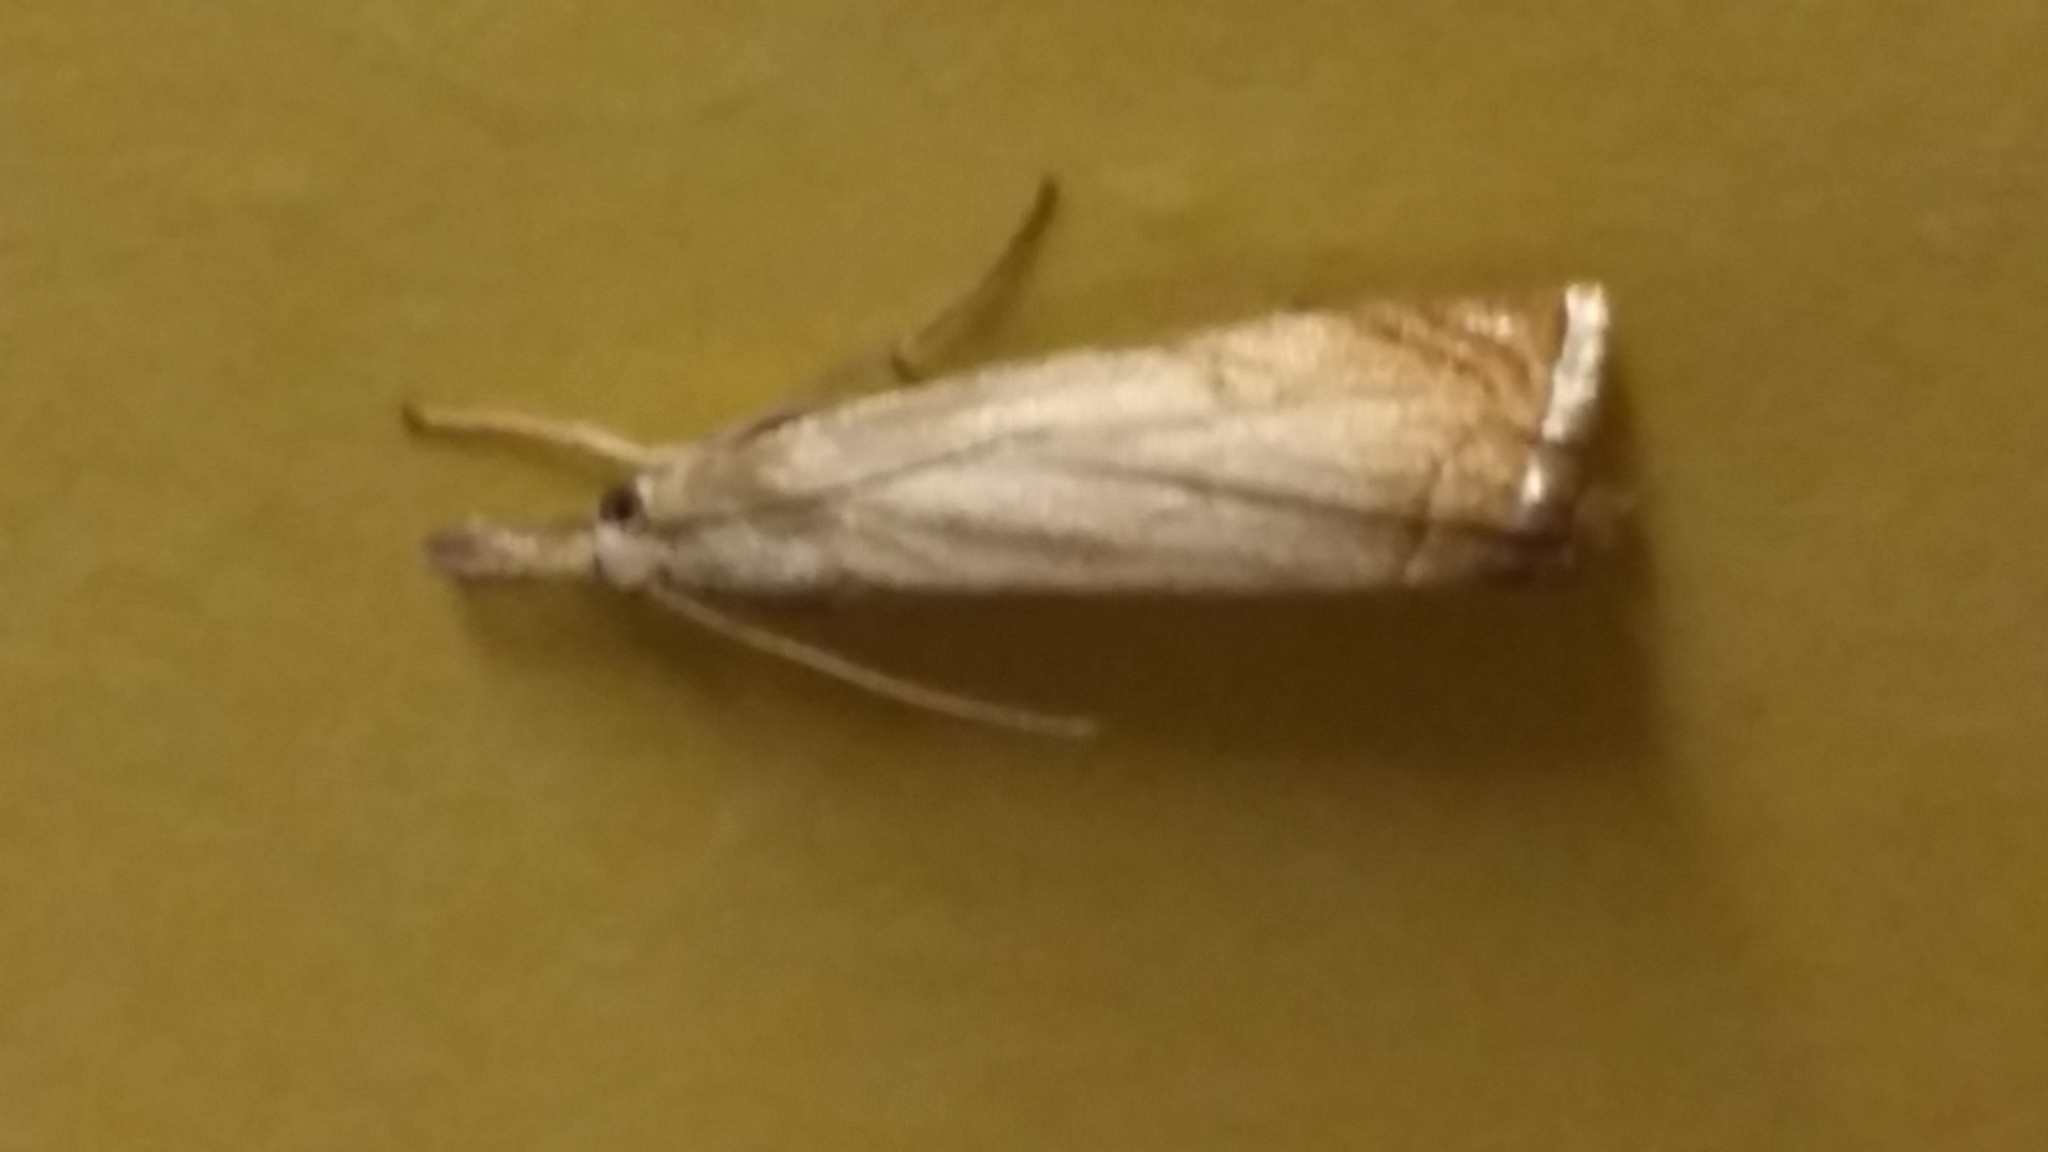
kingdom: Animalia
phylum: Arthropoda
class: Insecta
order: Lepidoptera
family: Crambidae
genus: Chrysoteuchia
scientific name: Chrysoteuchia culmella
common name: Garden grass-veneer
